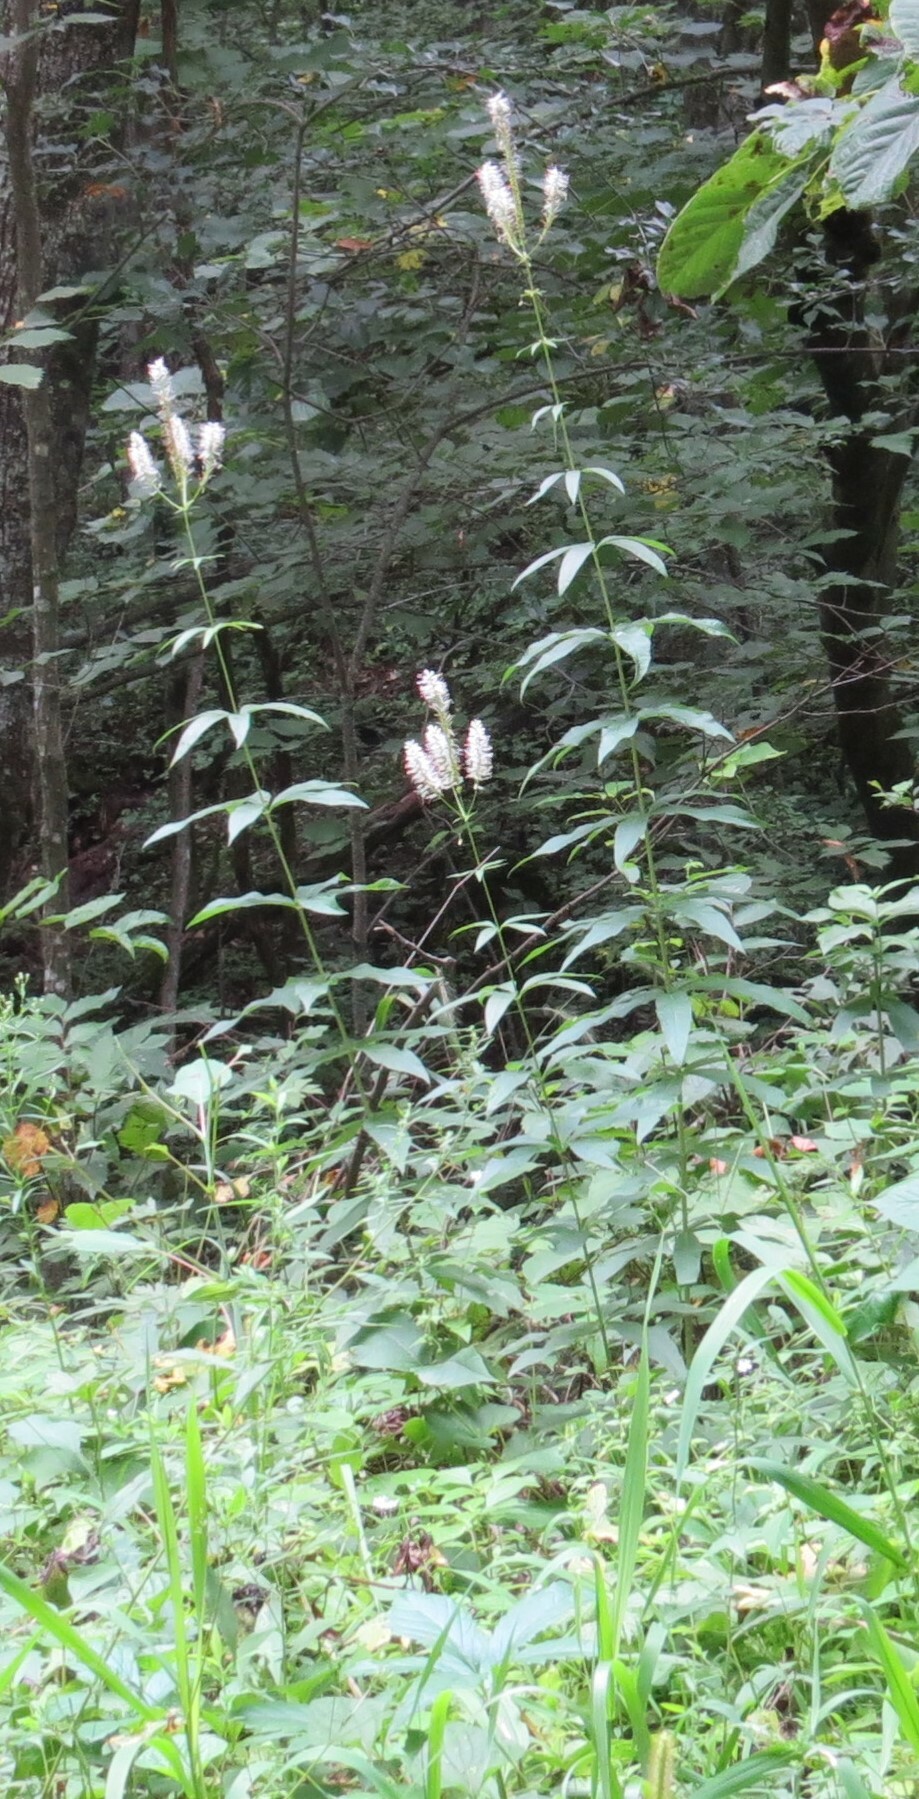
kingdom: Plantae
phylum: Tracheophyta
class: Magnoliopsida
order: Lamiales
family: Plantaginaceae
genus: Veronicastrum
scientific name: Veronicastrum virginicum
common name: Blackroot
